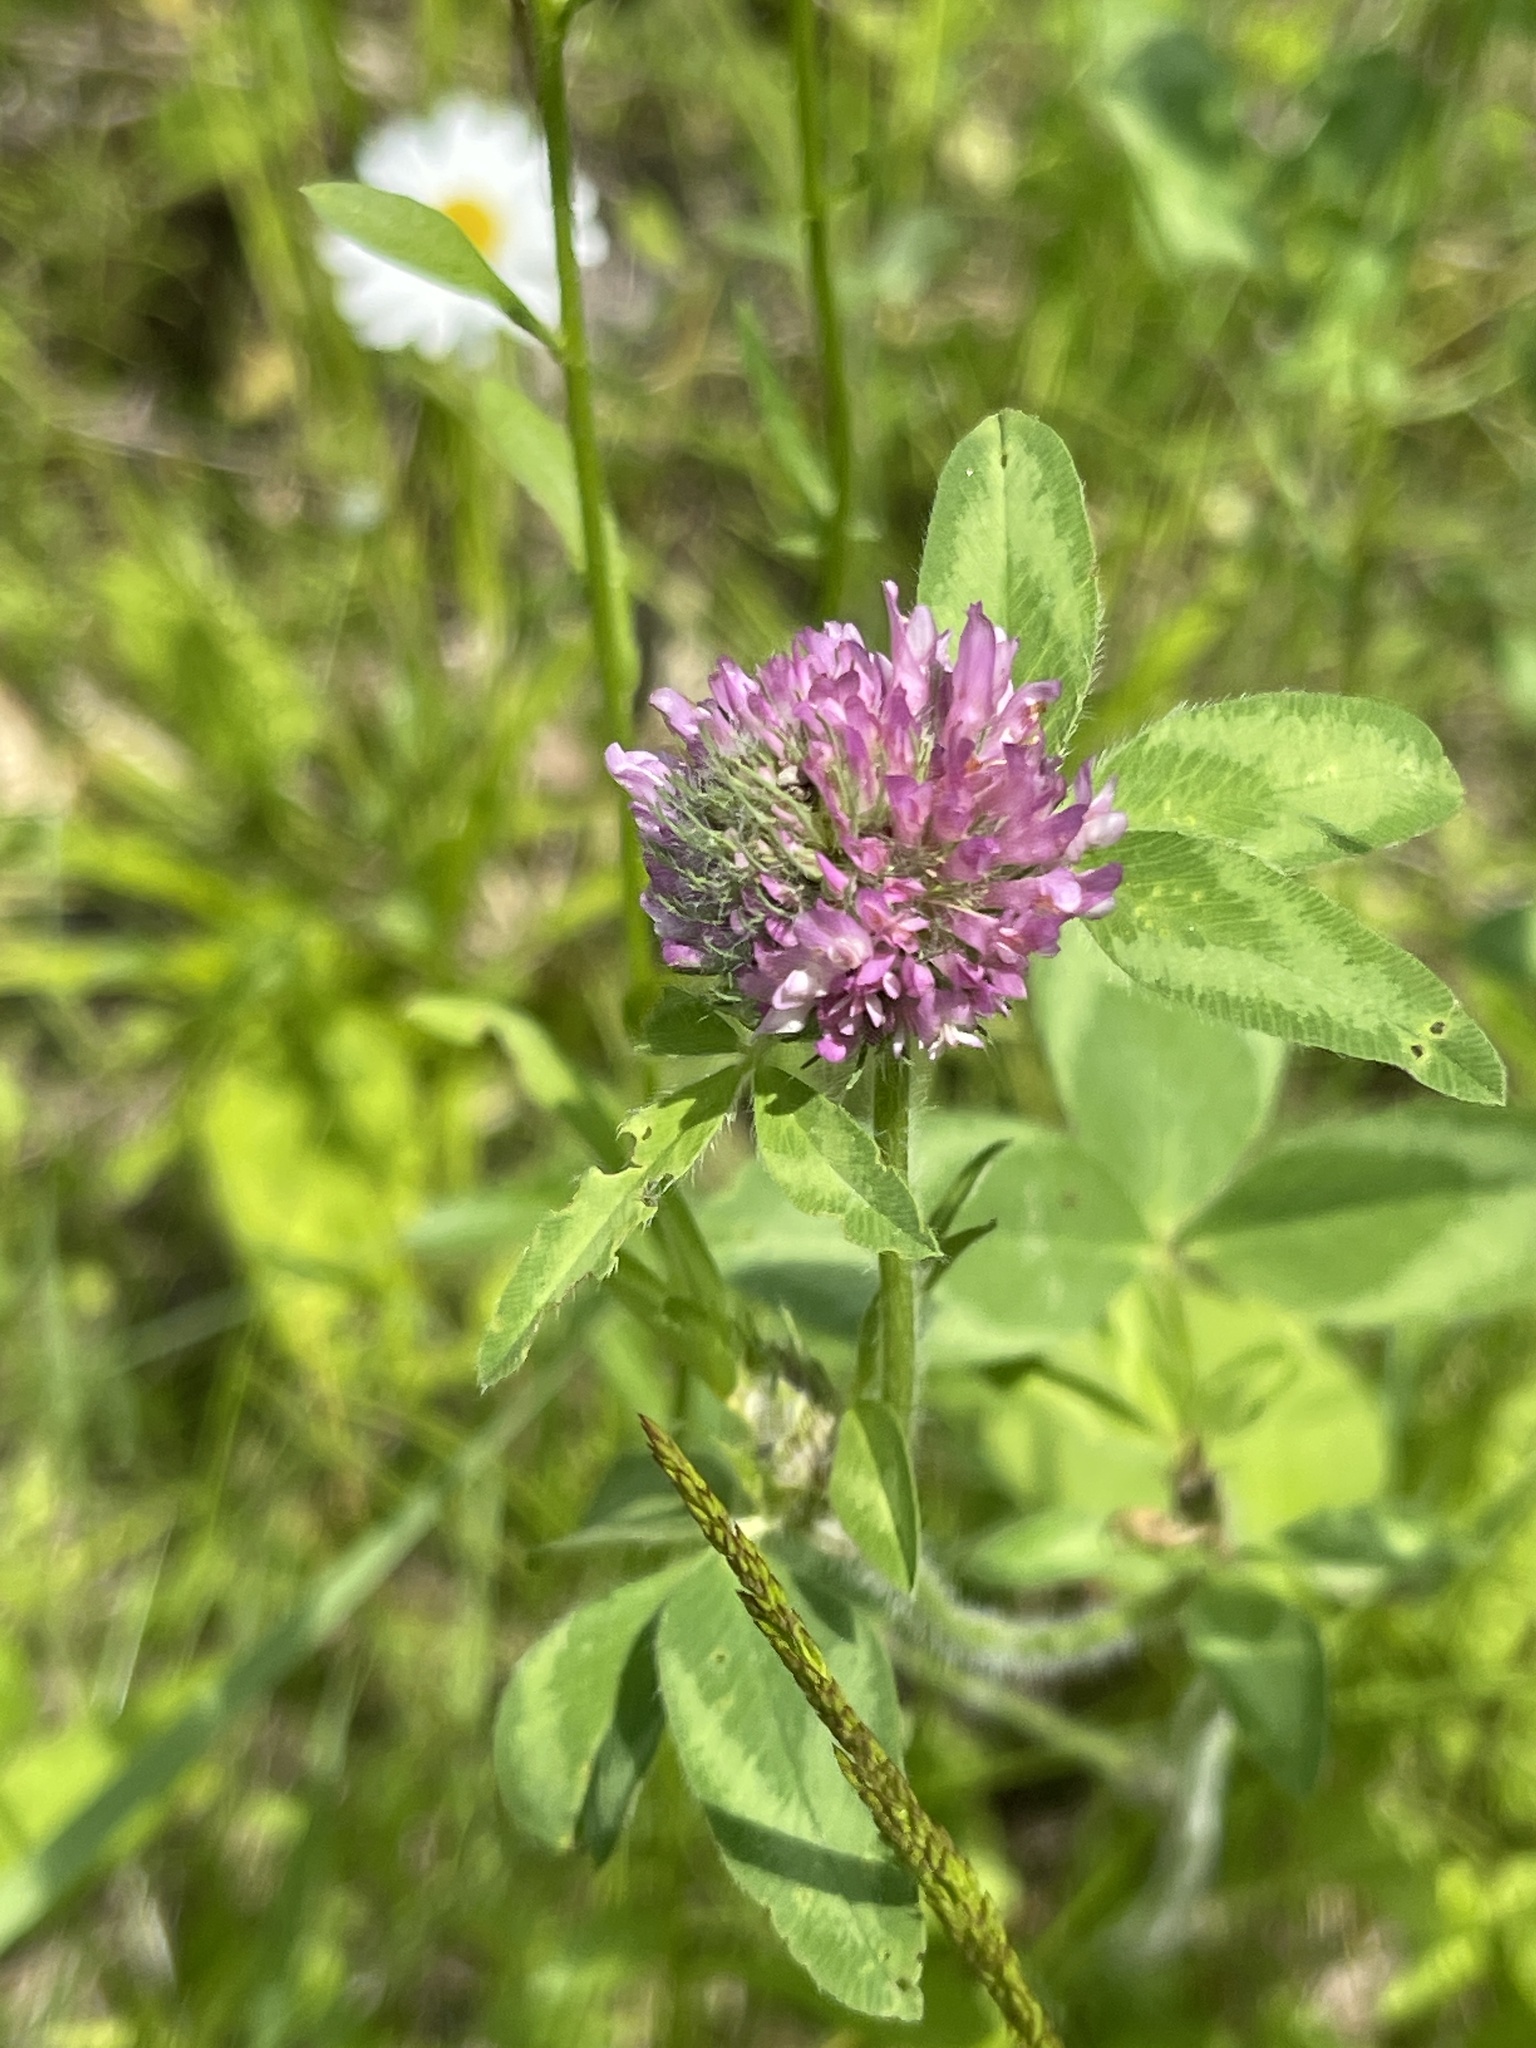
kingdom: Plantae
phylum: Tracheophyta
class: Magnoliopsida
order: Fabales
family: Fabaceae
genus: Trifolium
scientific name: Trifolium pratense
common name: Red clover
